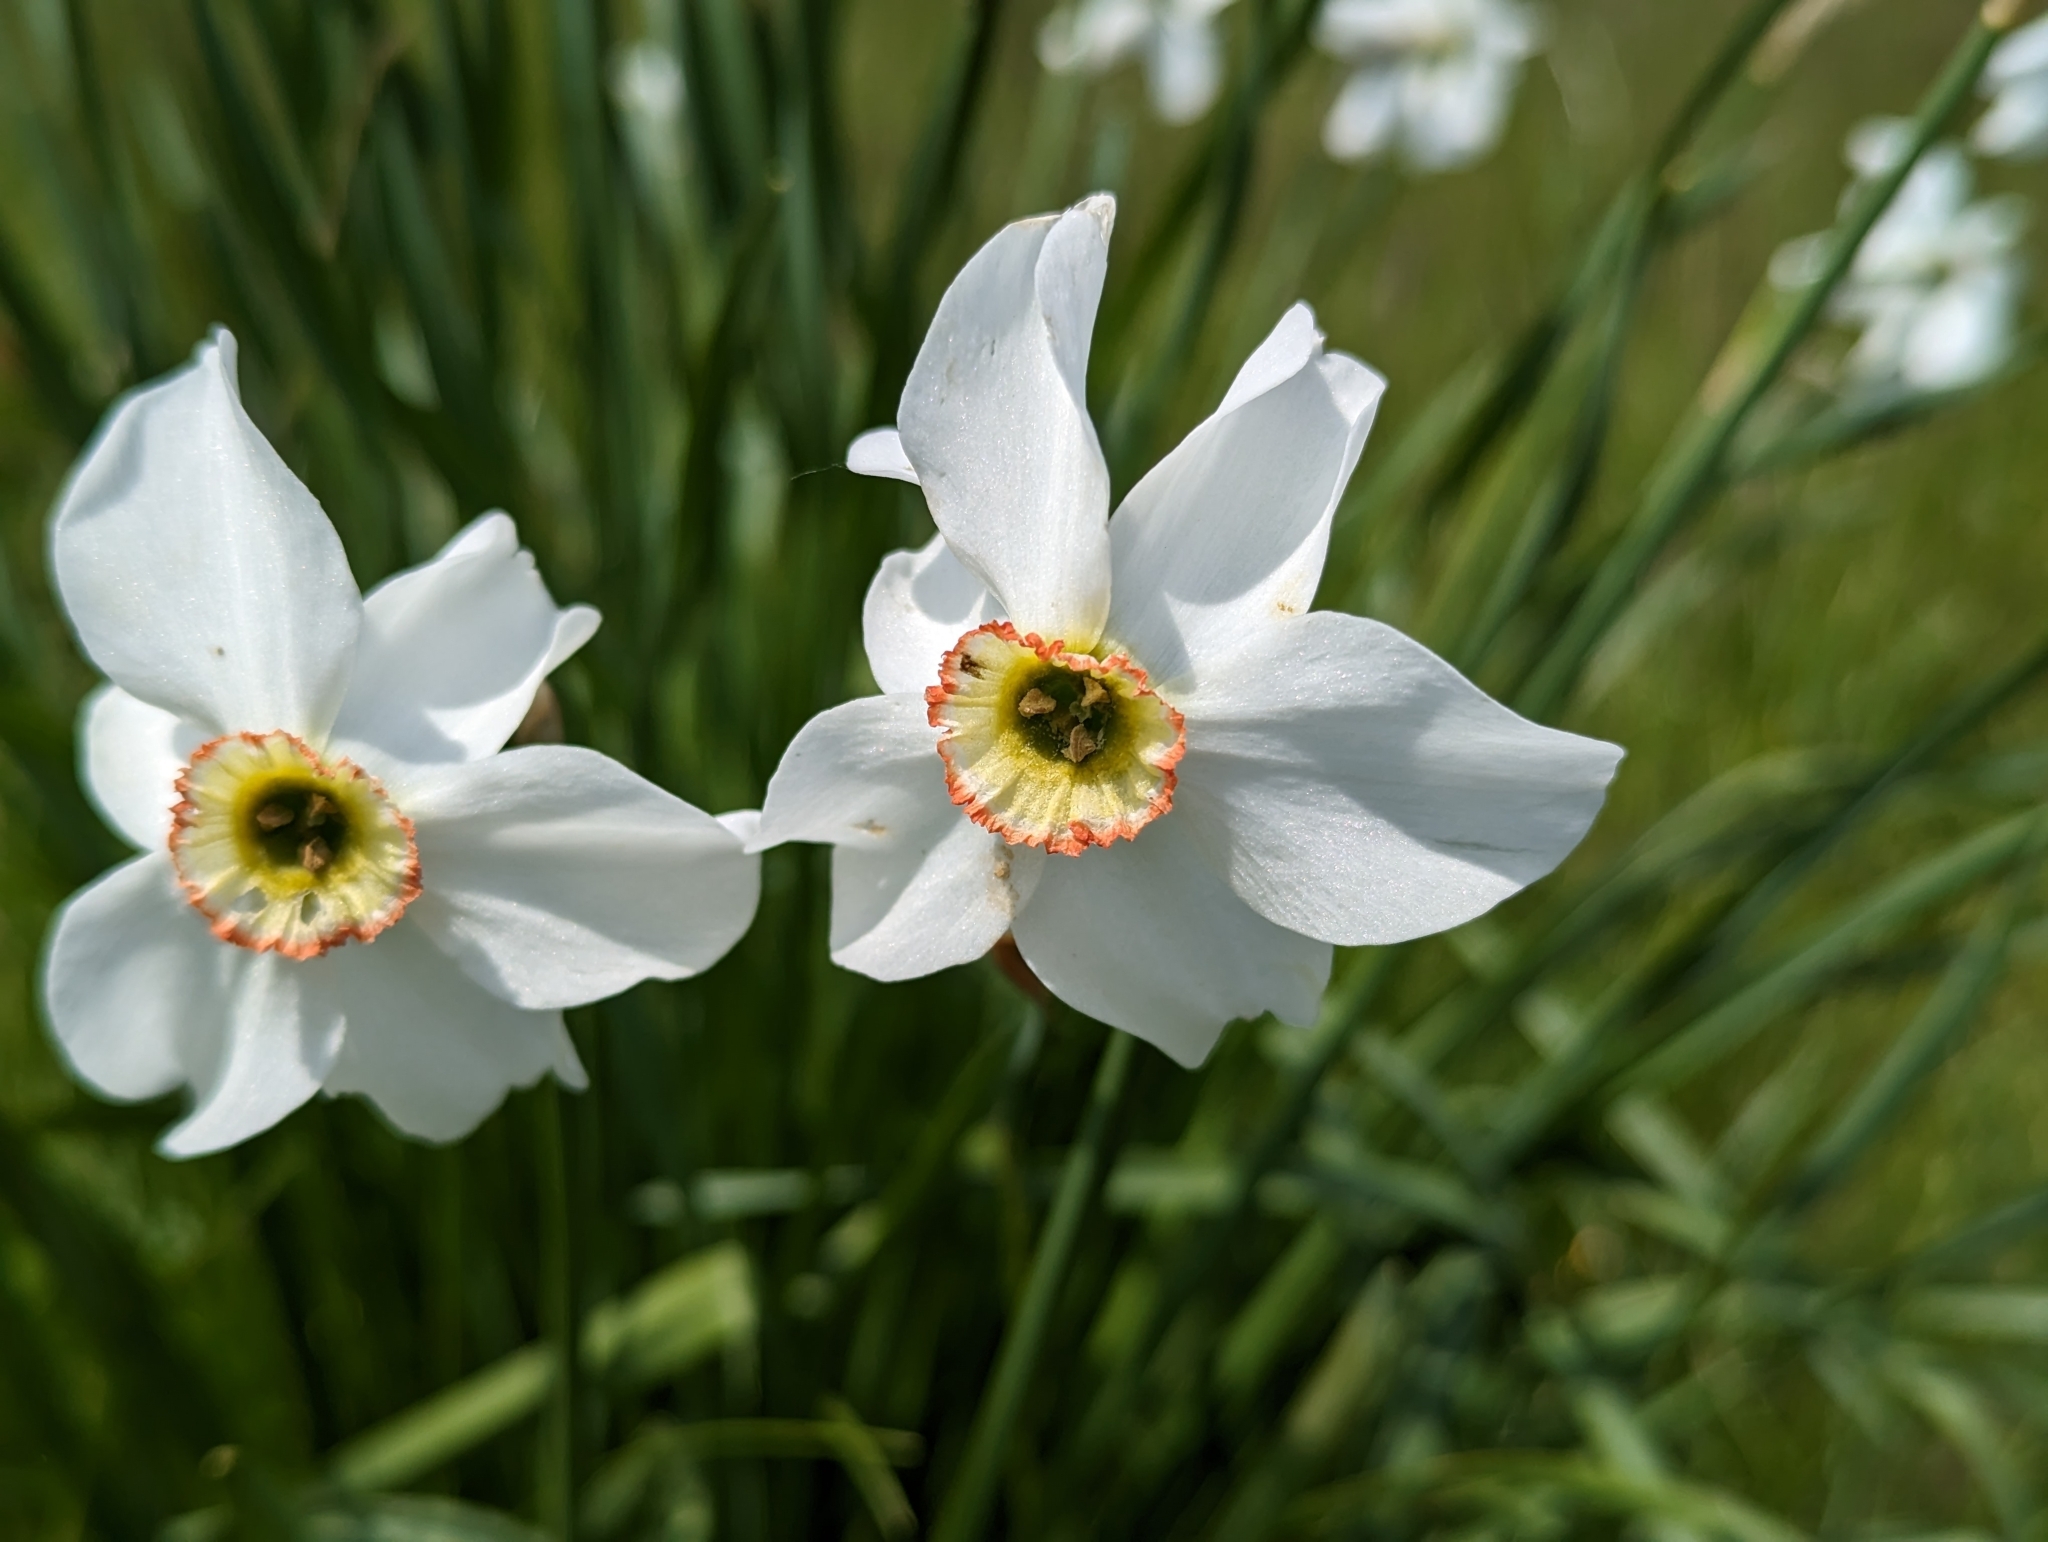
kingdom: Plantae
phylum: Tracheophyta
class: Liliopsida
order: Asparagales
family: Amaryllidaceae
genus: Narcissus
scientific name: Narcissus poeticus
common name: Pheasant's-eye daffodil
